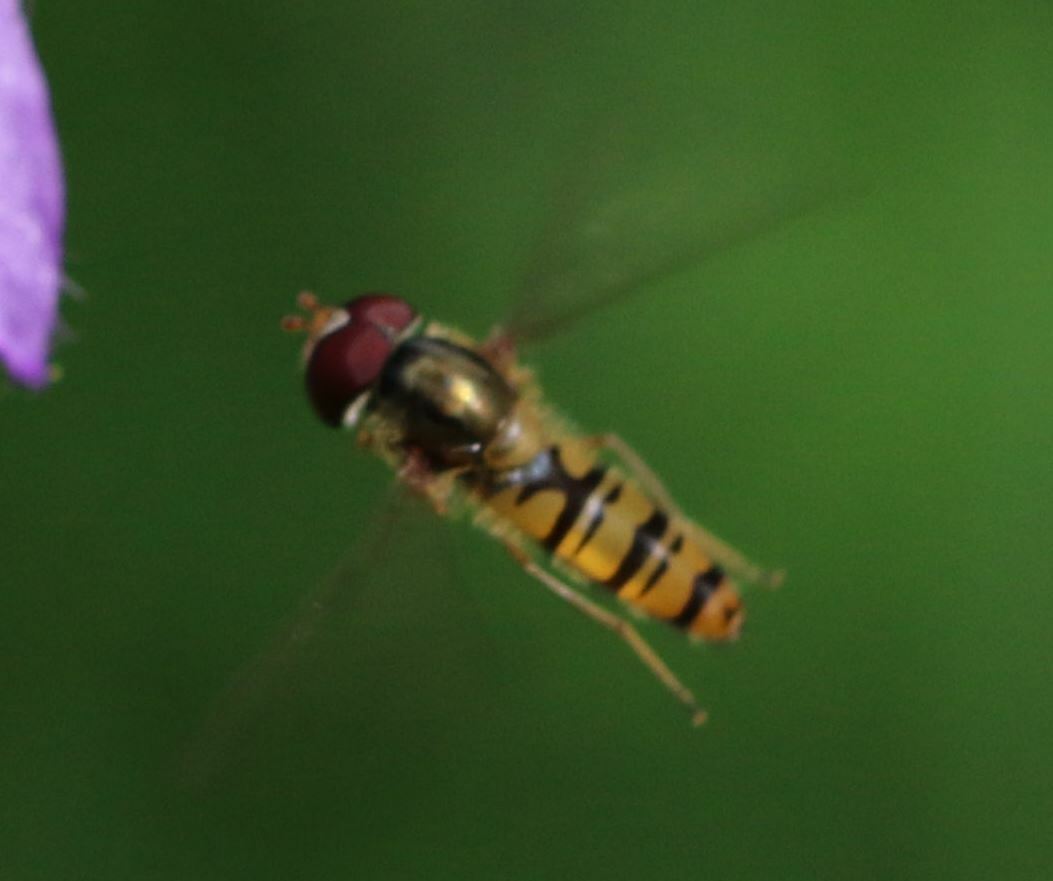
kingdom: Animalia
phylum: Arthropoda
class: Insecta
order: Diptera
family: Syrphidae
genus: Episyrphus
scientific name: Episyrphus balteatus
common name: Marmalade hoverfly
